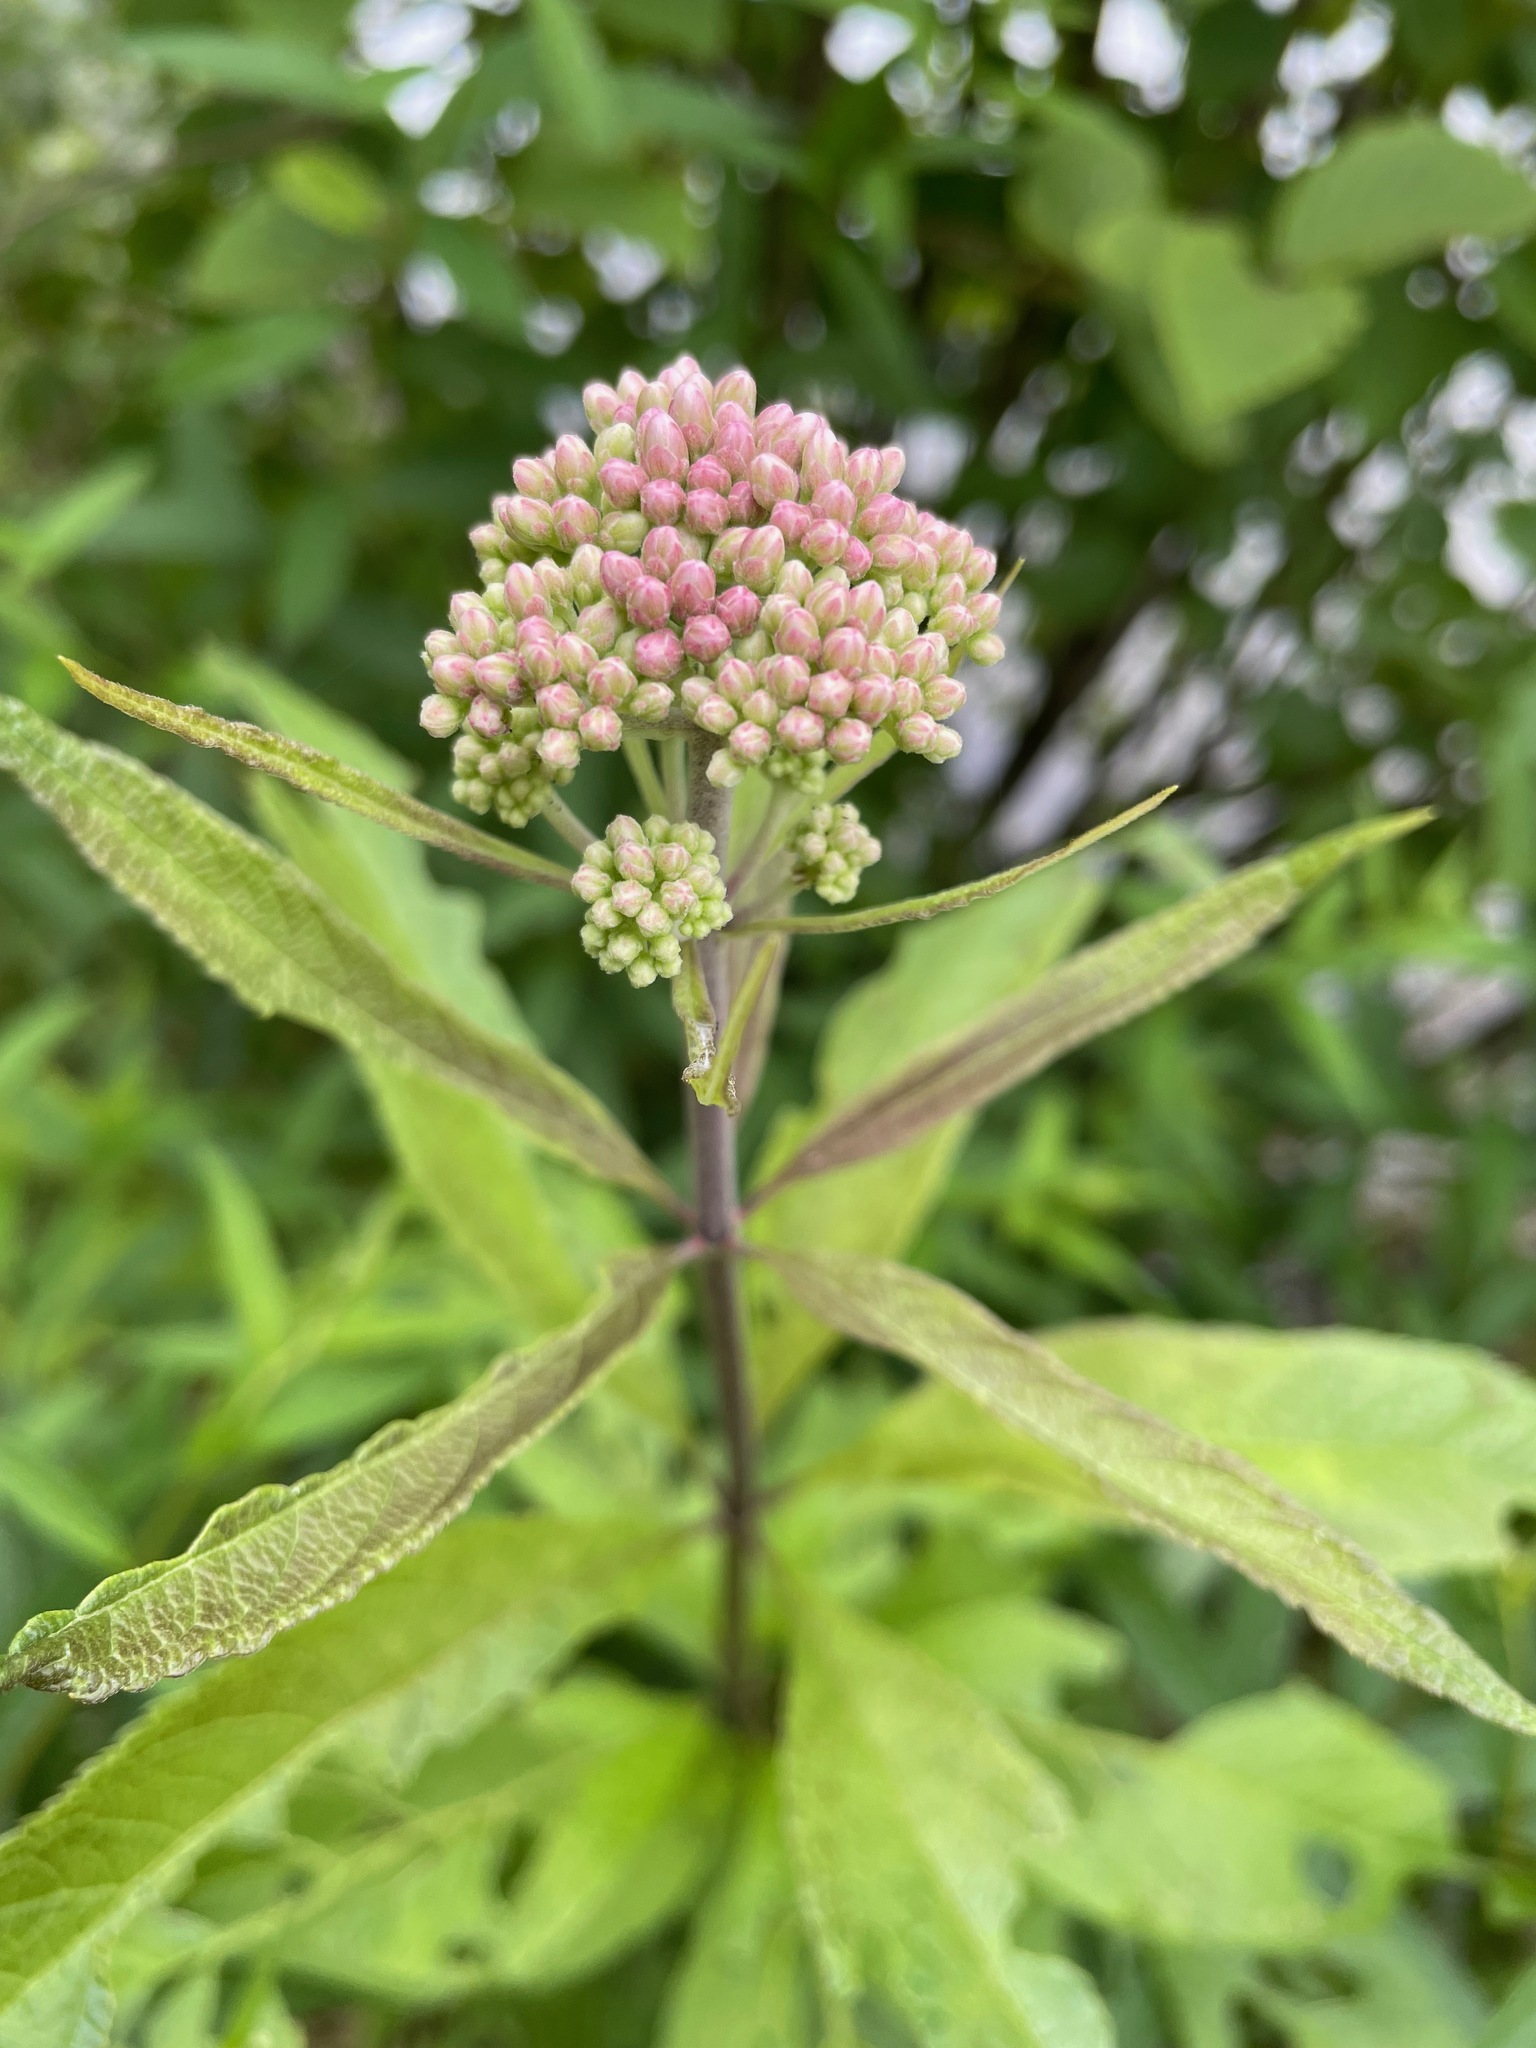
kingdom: Plantae
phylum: Tracheophyta
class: Magnoliopsida
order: Asterales
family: Asteraceae
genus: Eutrochium
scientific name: Eutrochium maculatum
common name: Spotted joe pye weed
